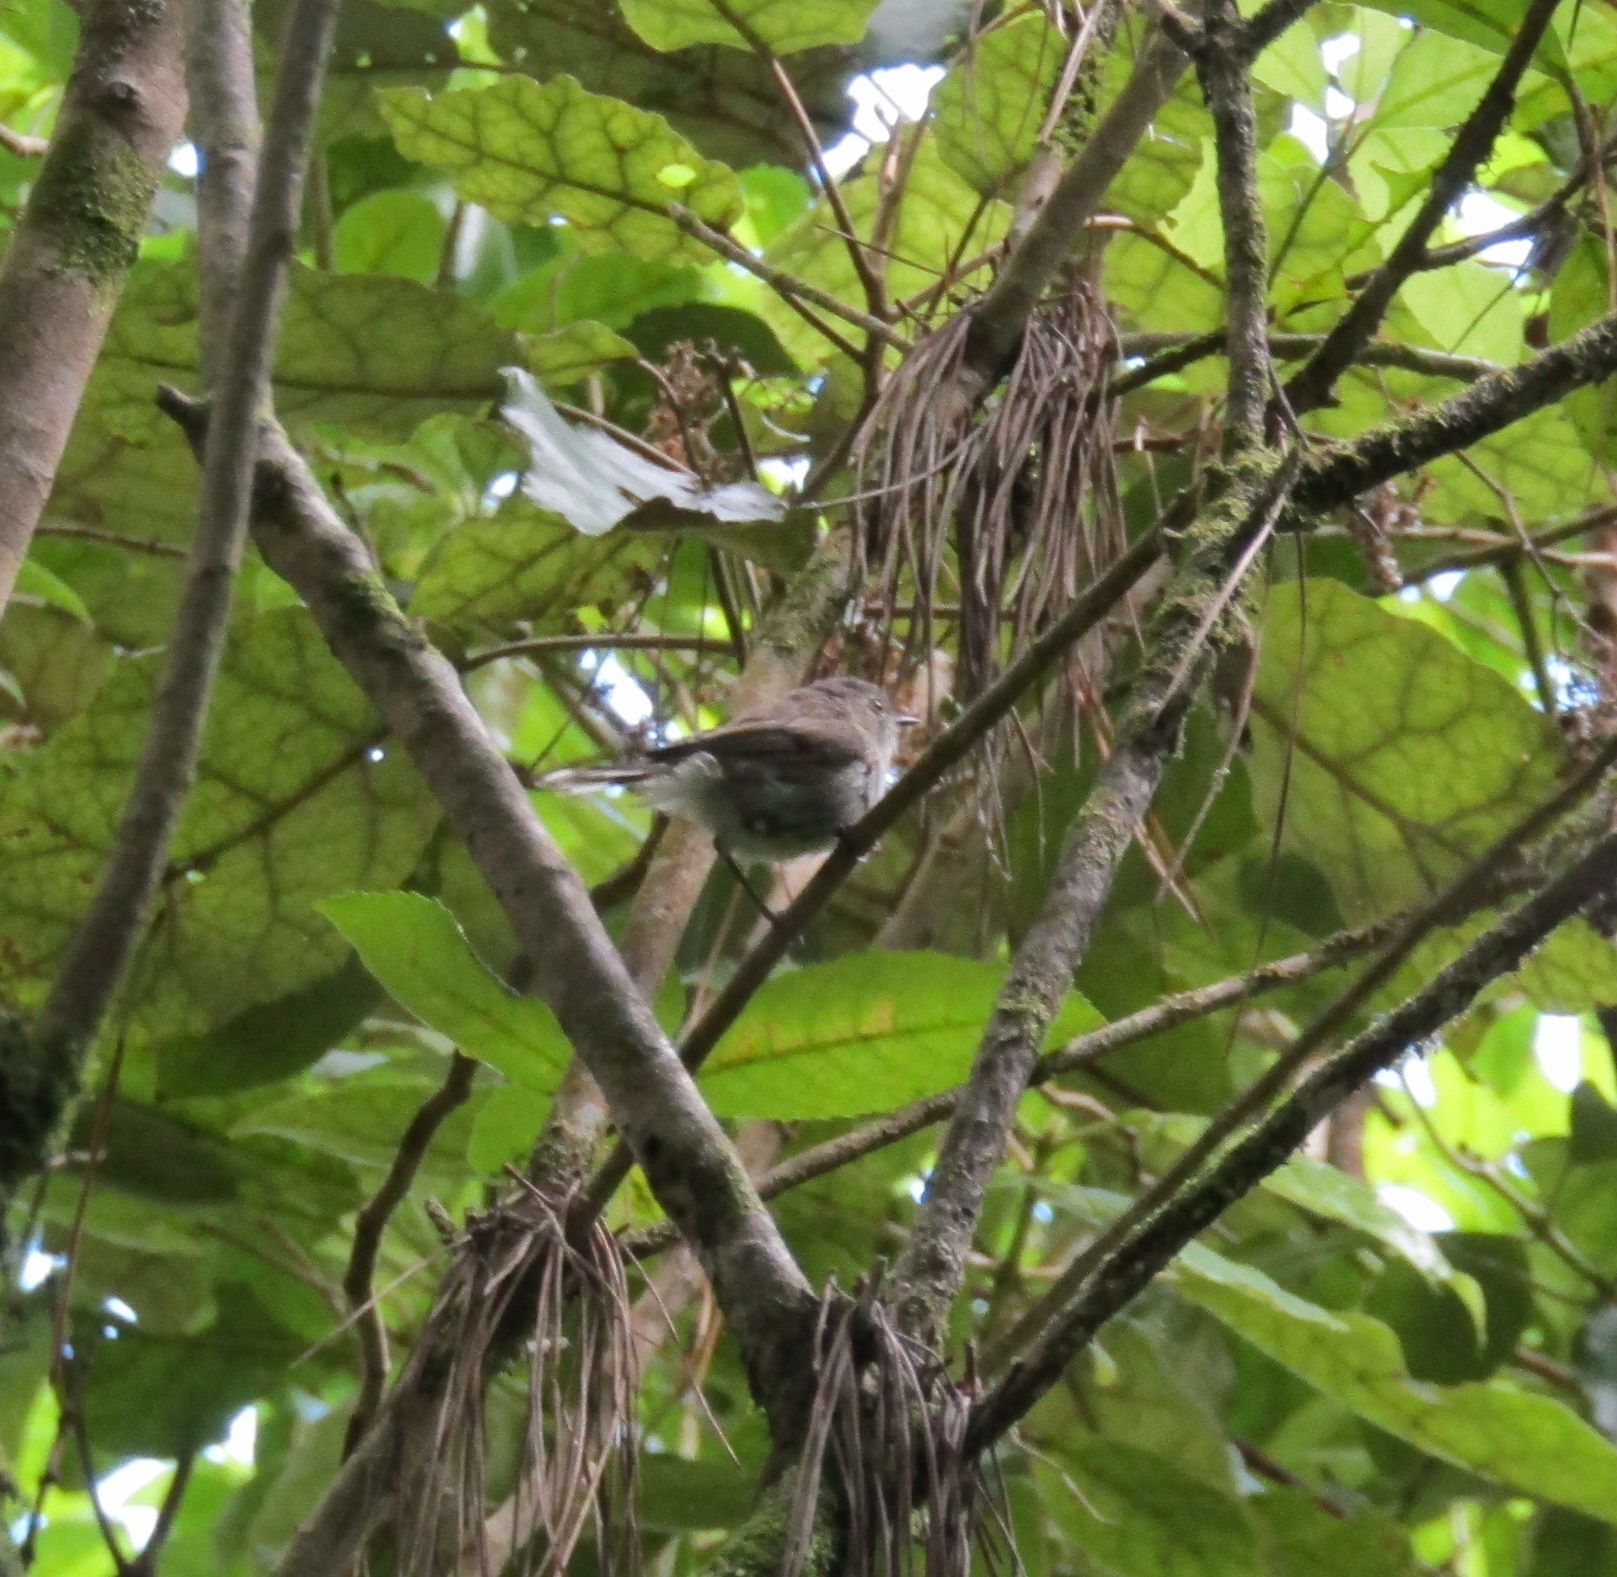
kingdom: Animalia
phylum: Chordata
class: Aves
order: Passeriformes
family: Acanthizidae
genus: Gerygone
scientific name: Gerygone igata
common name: Grey gerygone
